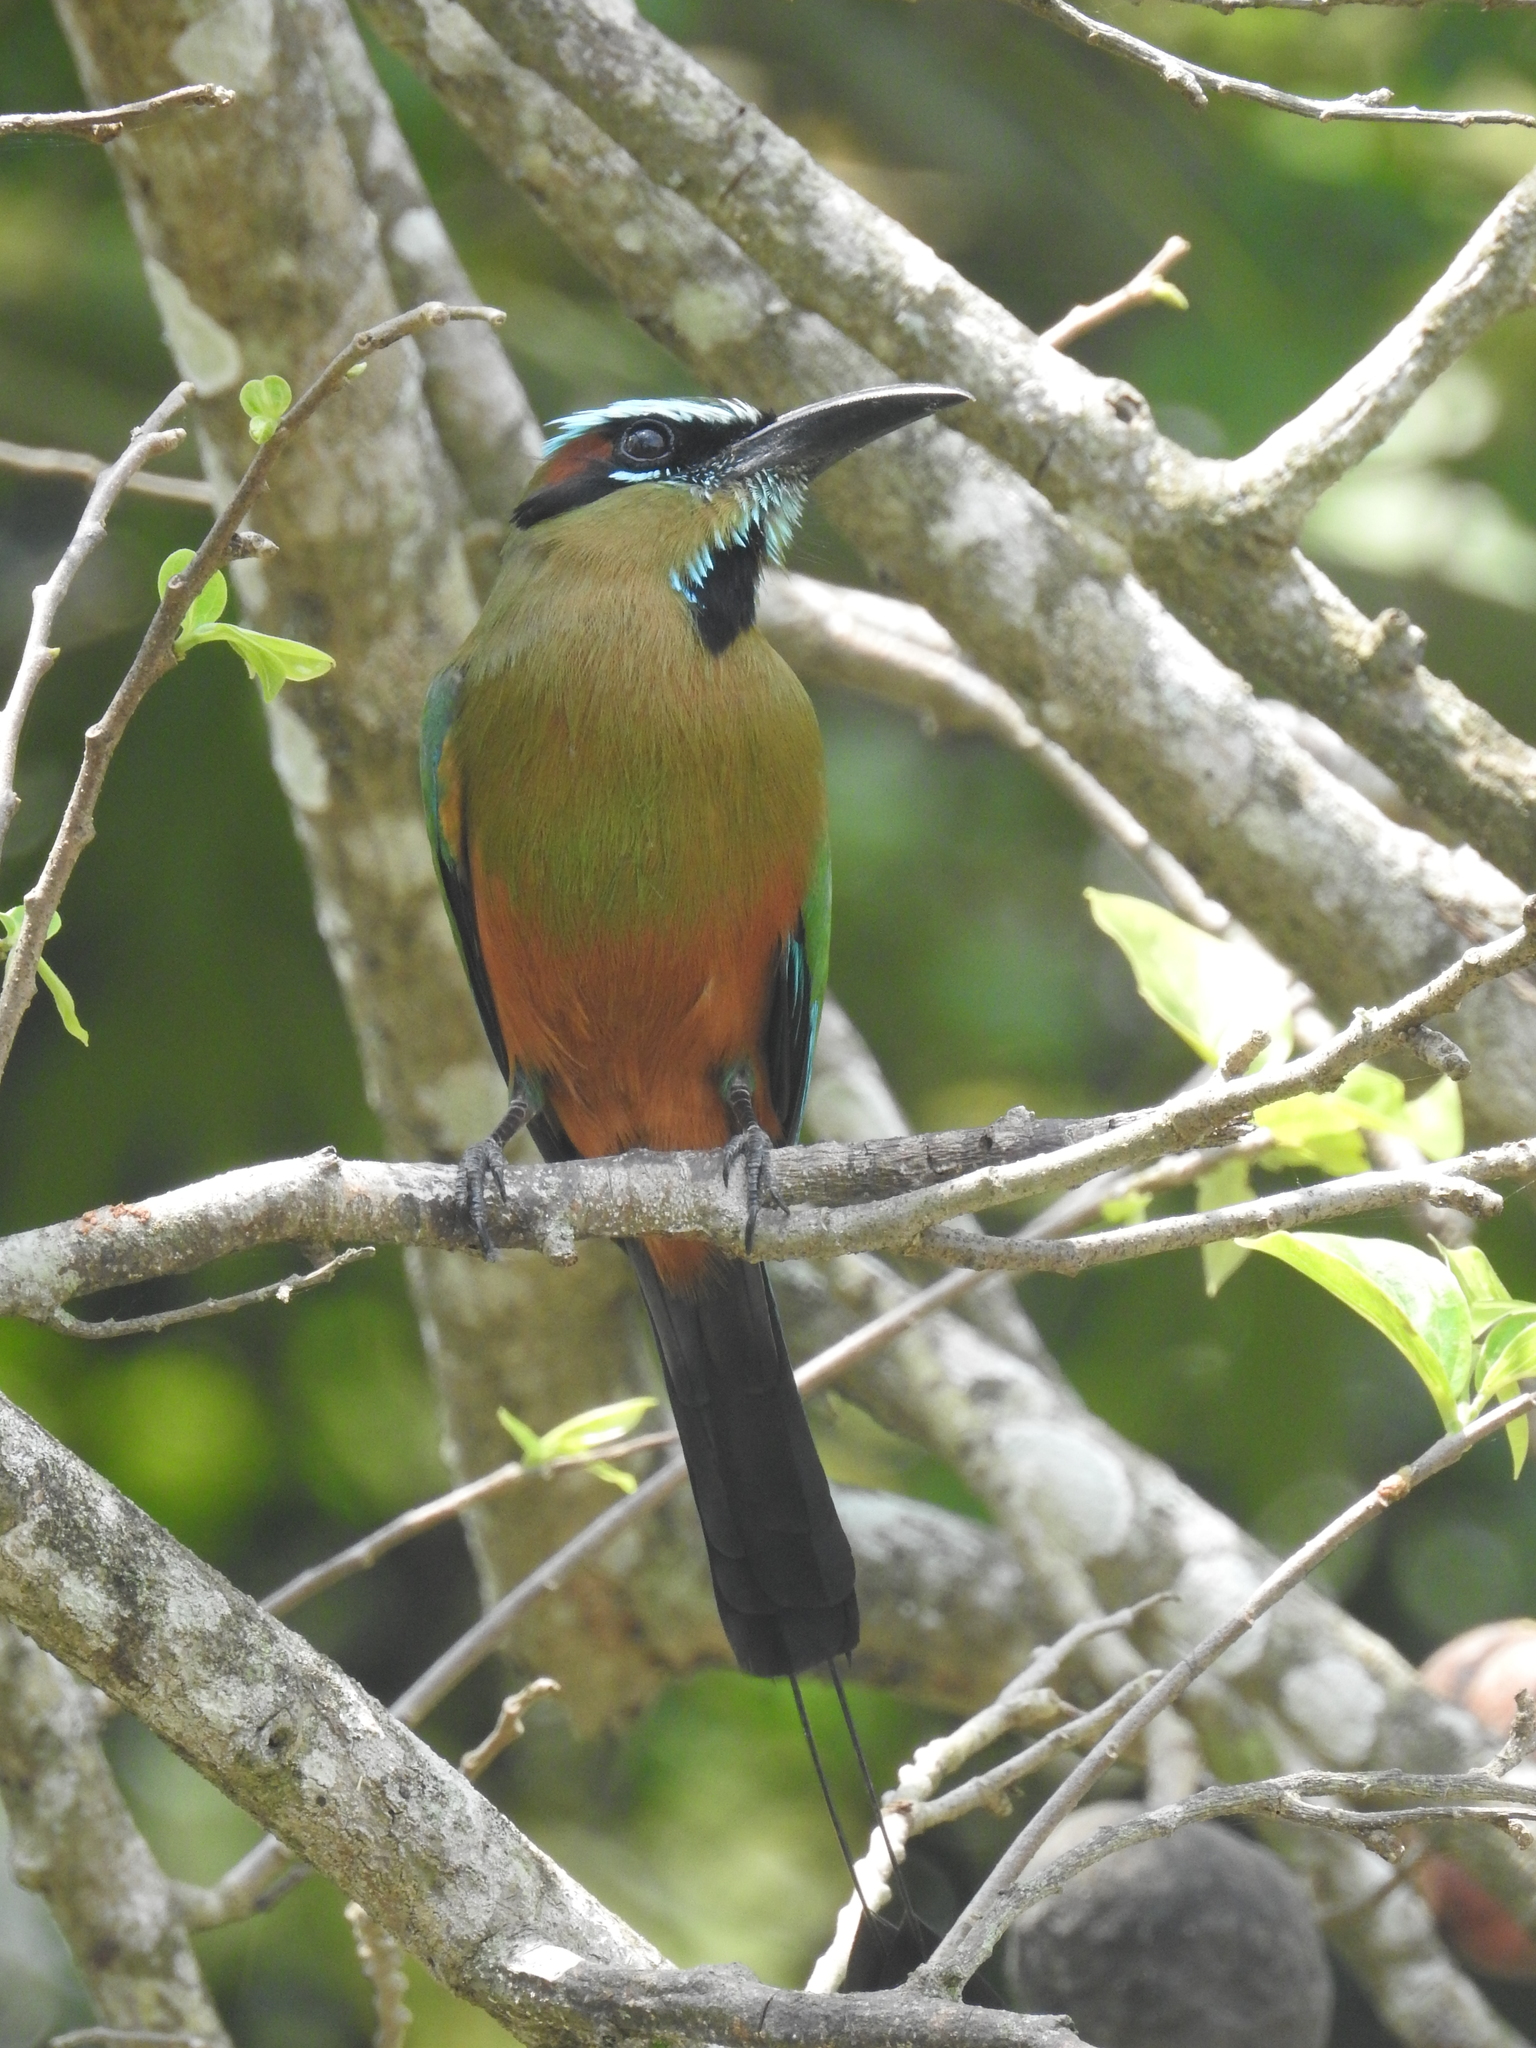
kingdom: Animalia
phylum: Chordata
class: Aves
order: Coraciiformes
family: Momotidae
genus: Eumomota
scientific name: Eumomota superciliosa
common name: Turquoise-browed motmot
